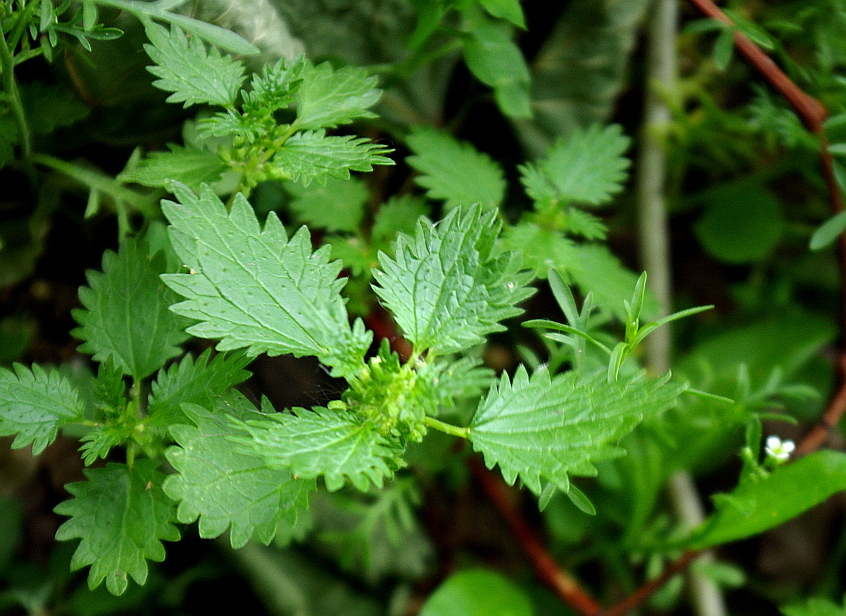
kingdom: Plantae
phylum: Tracheophyta
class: Magnoliopsida
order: Rosales
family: Urticaceae
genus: Urtica
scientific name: Urtica urens
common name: Dwarf nettle
